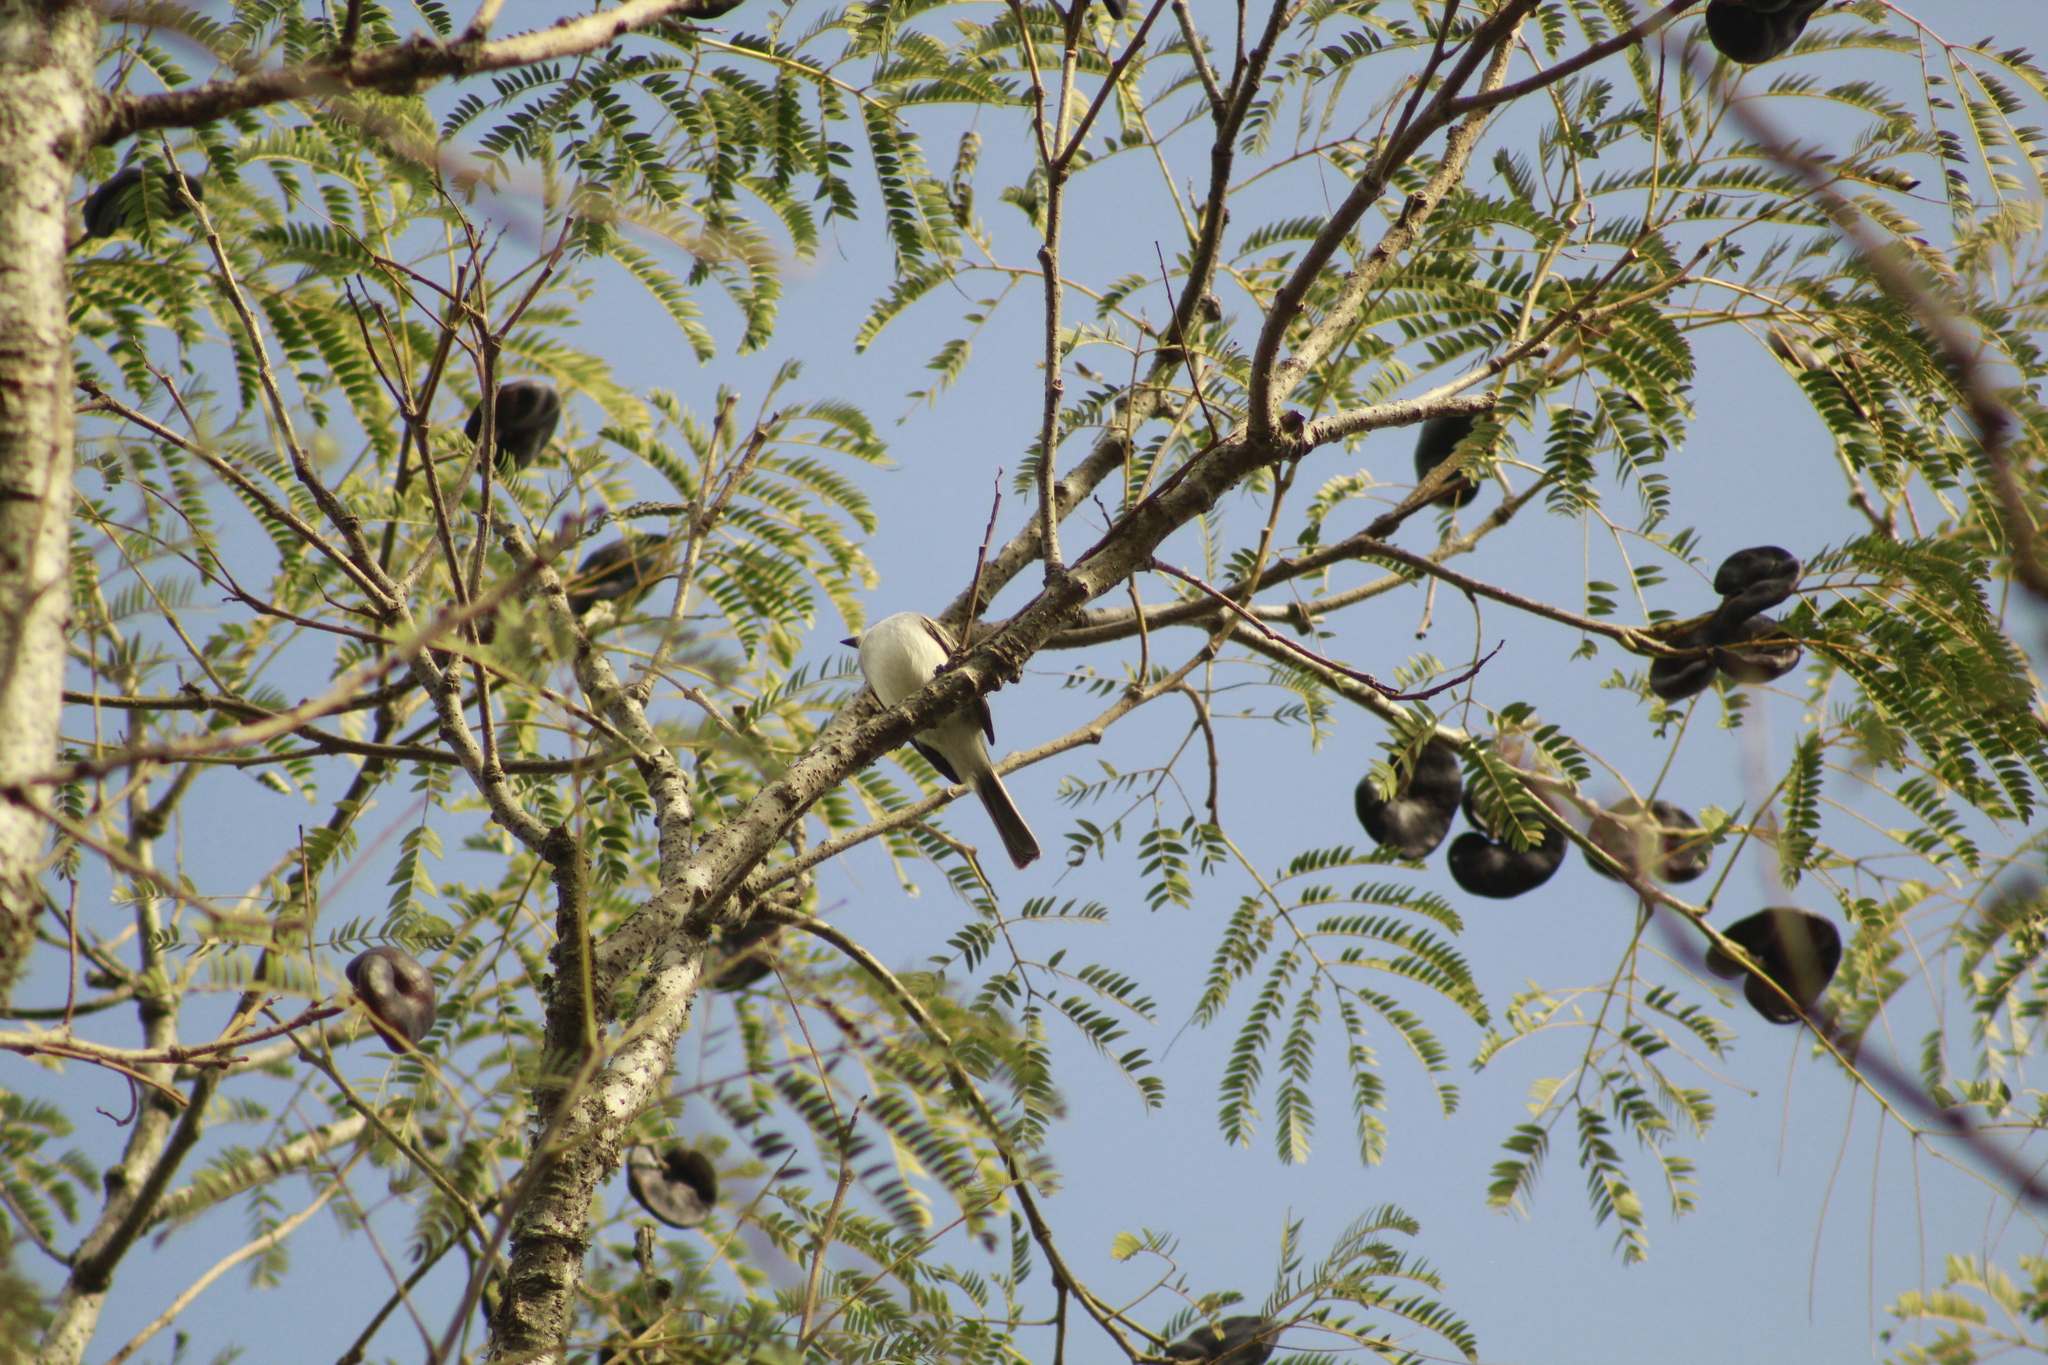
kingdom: Animalia
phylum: Chordata
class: Aves
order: Passeriformes
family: Tyrannidae
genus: Suiriri
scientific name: Suiriri suiriri
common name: Suiriri flycatcher
